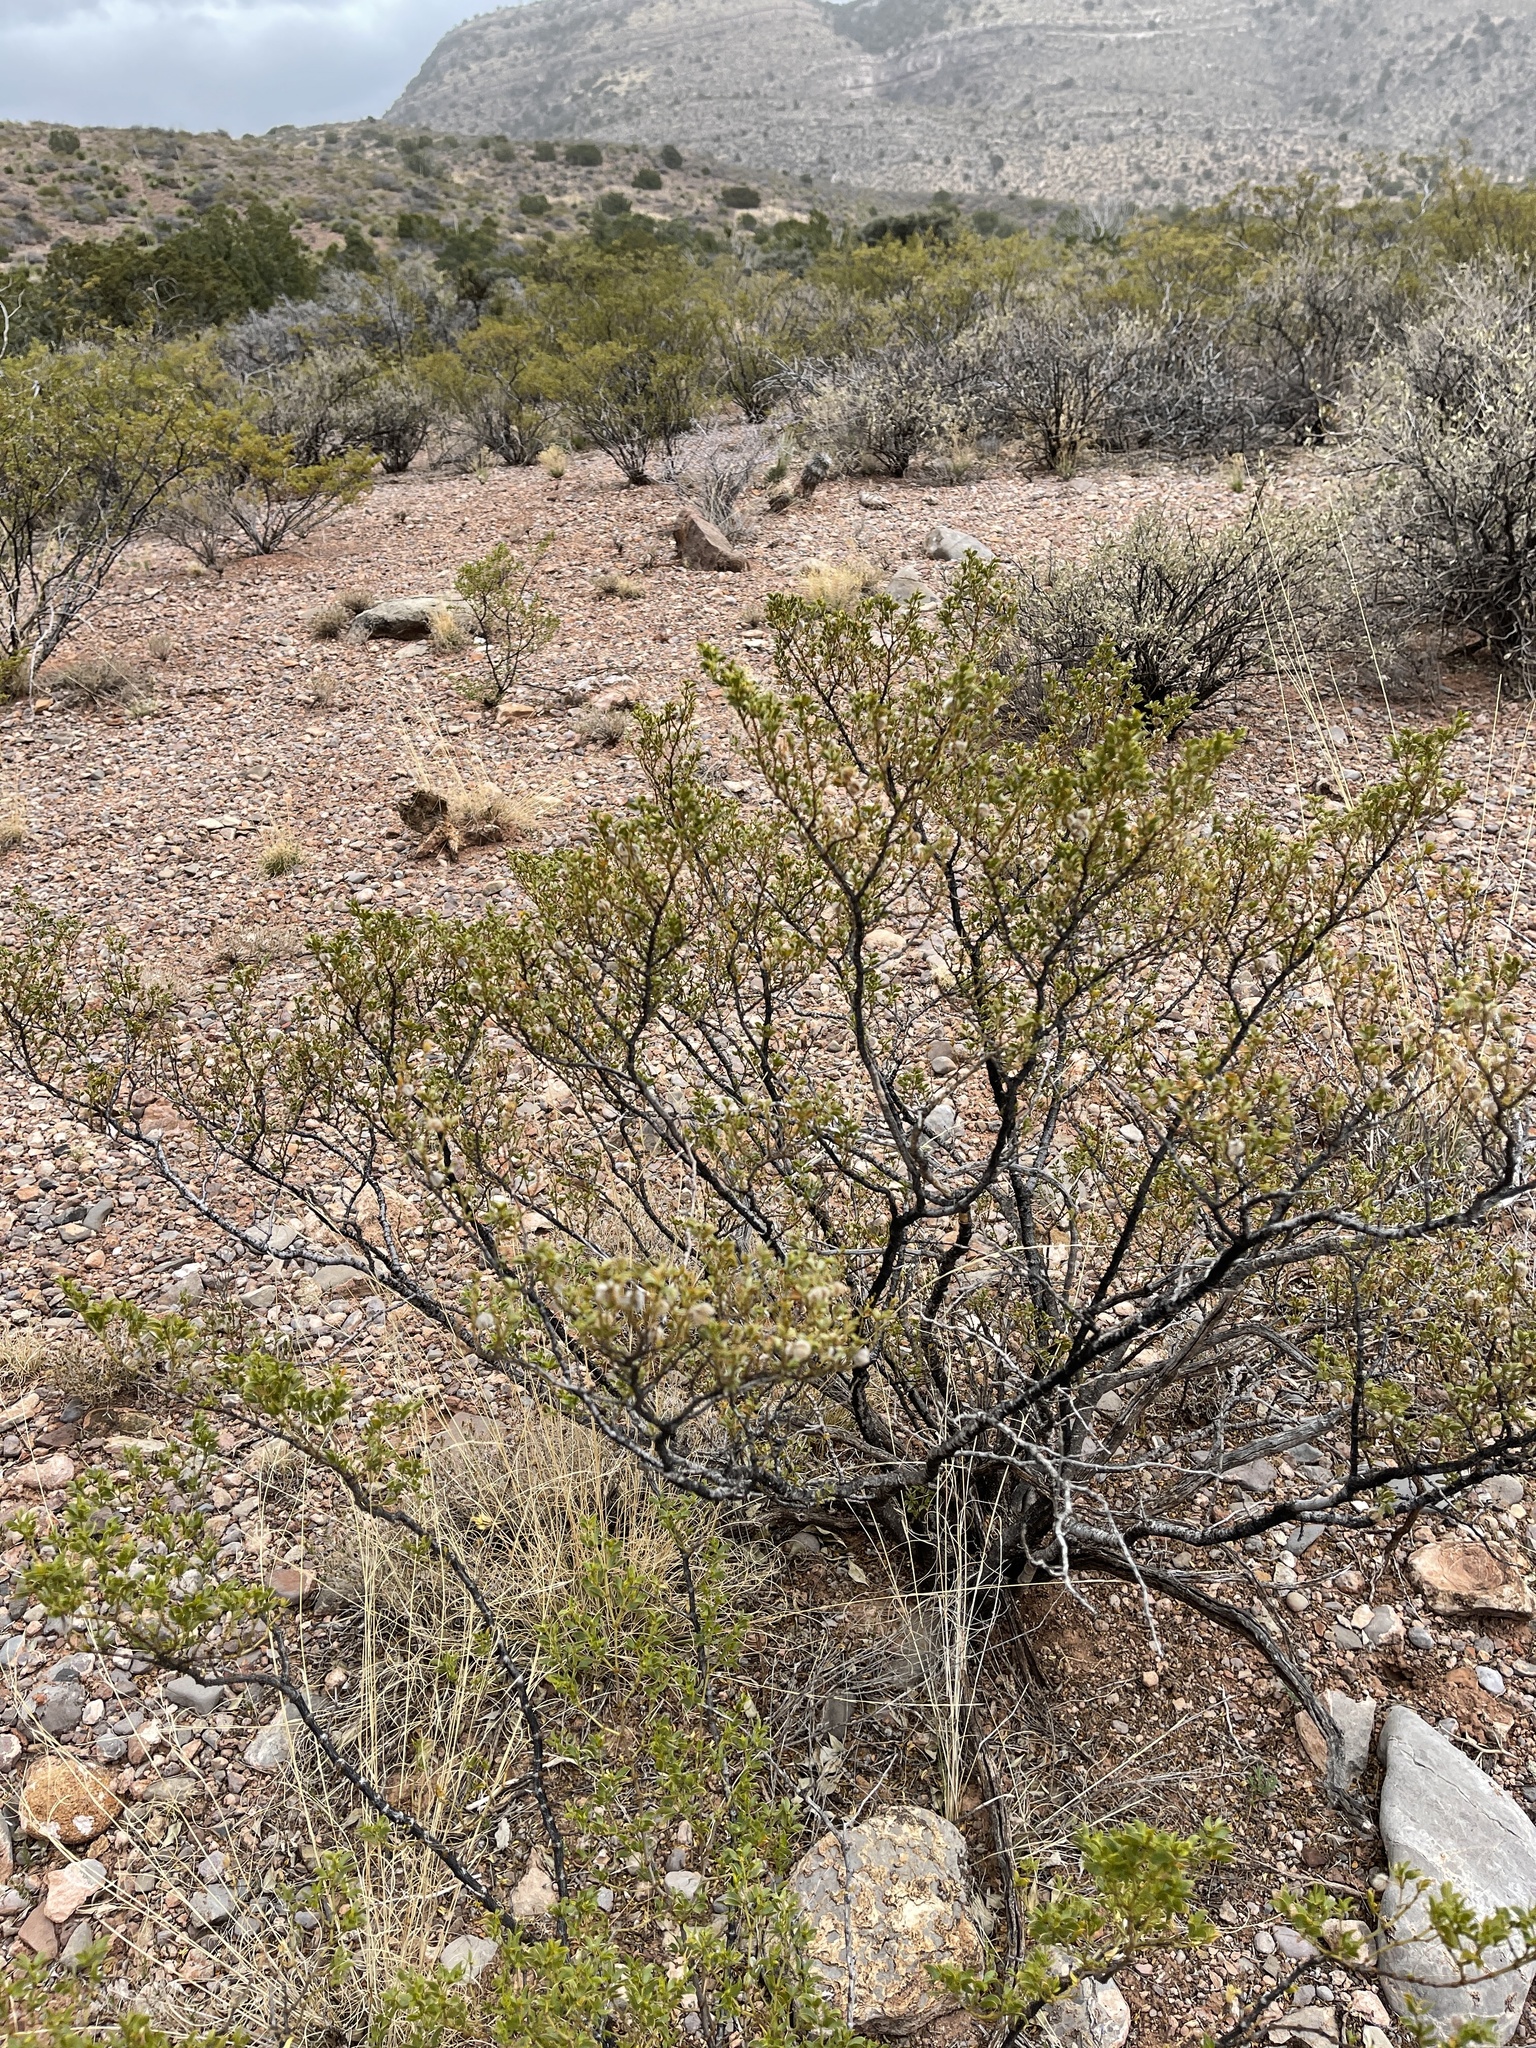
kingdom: Plantae
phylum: Tracheophyta
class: Magnoliopsida
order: Zygophyllales
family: Zygophyllaceae
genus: Larrea
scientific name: Larrea tridentata
